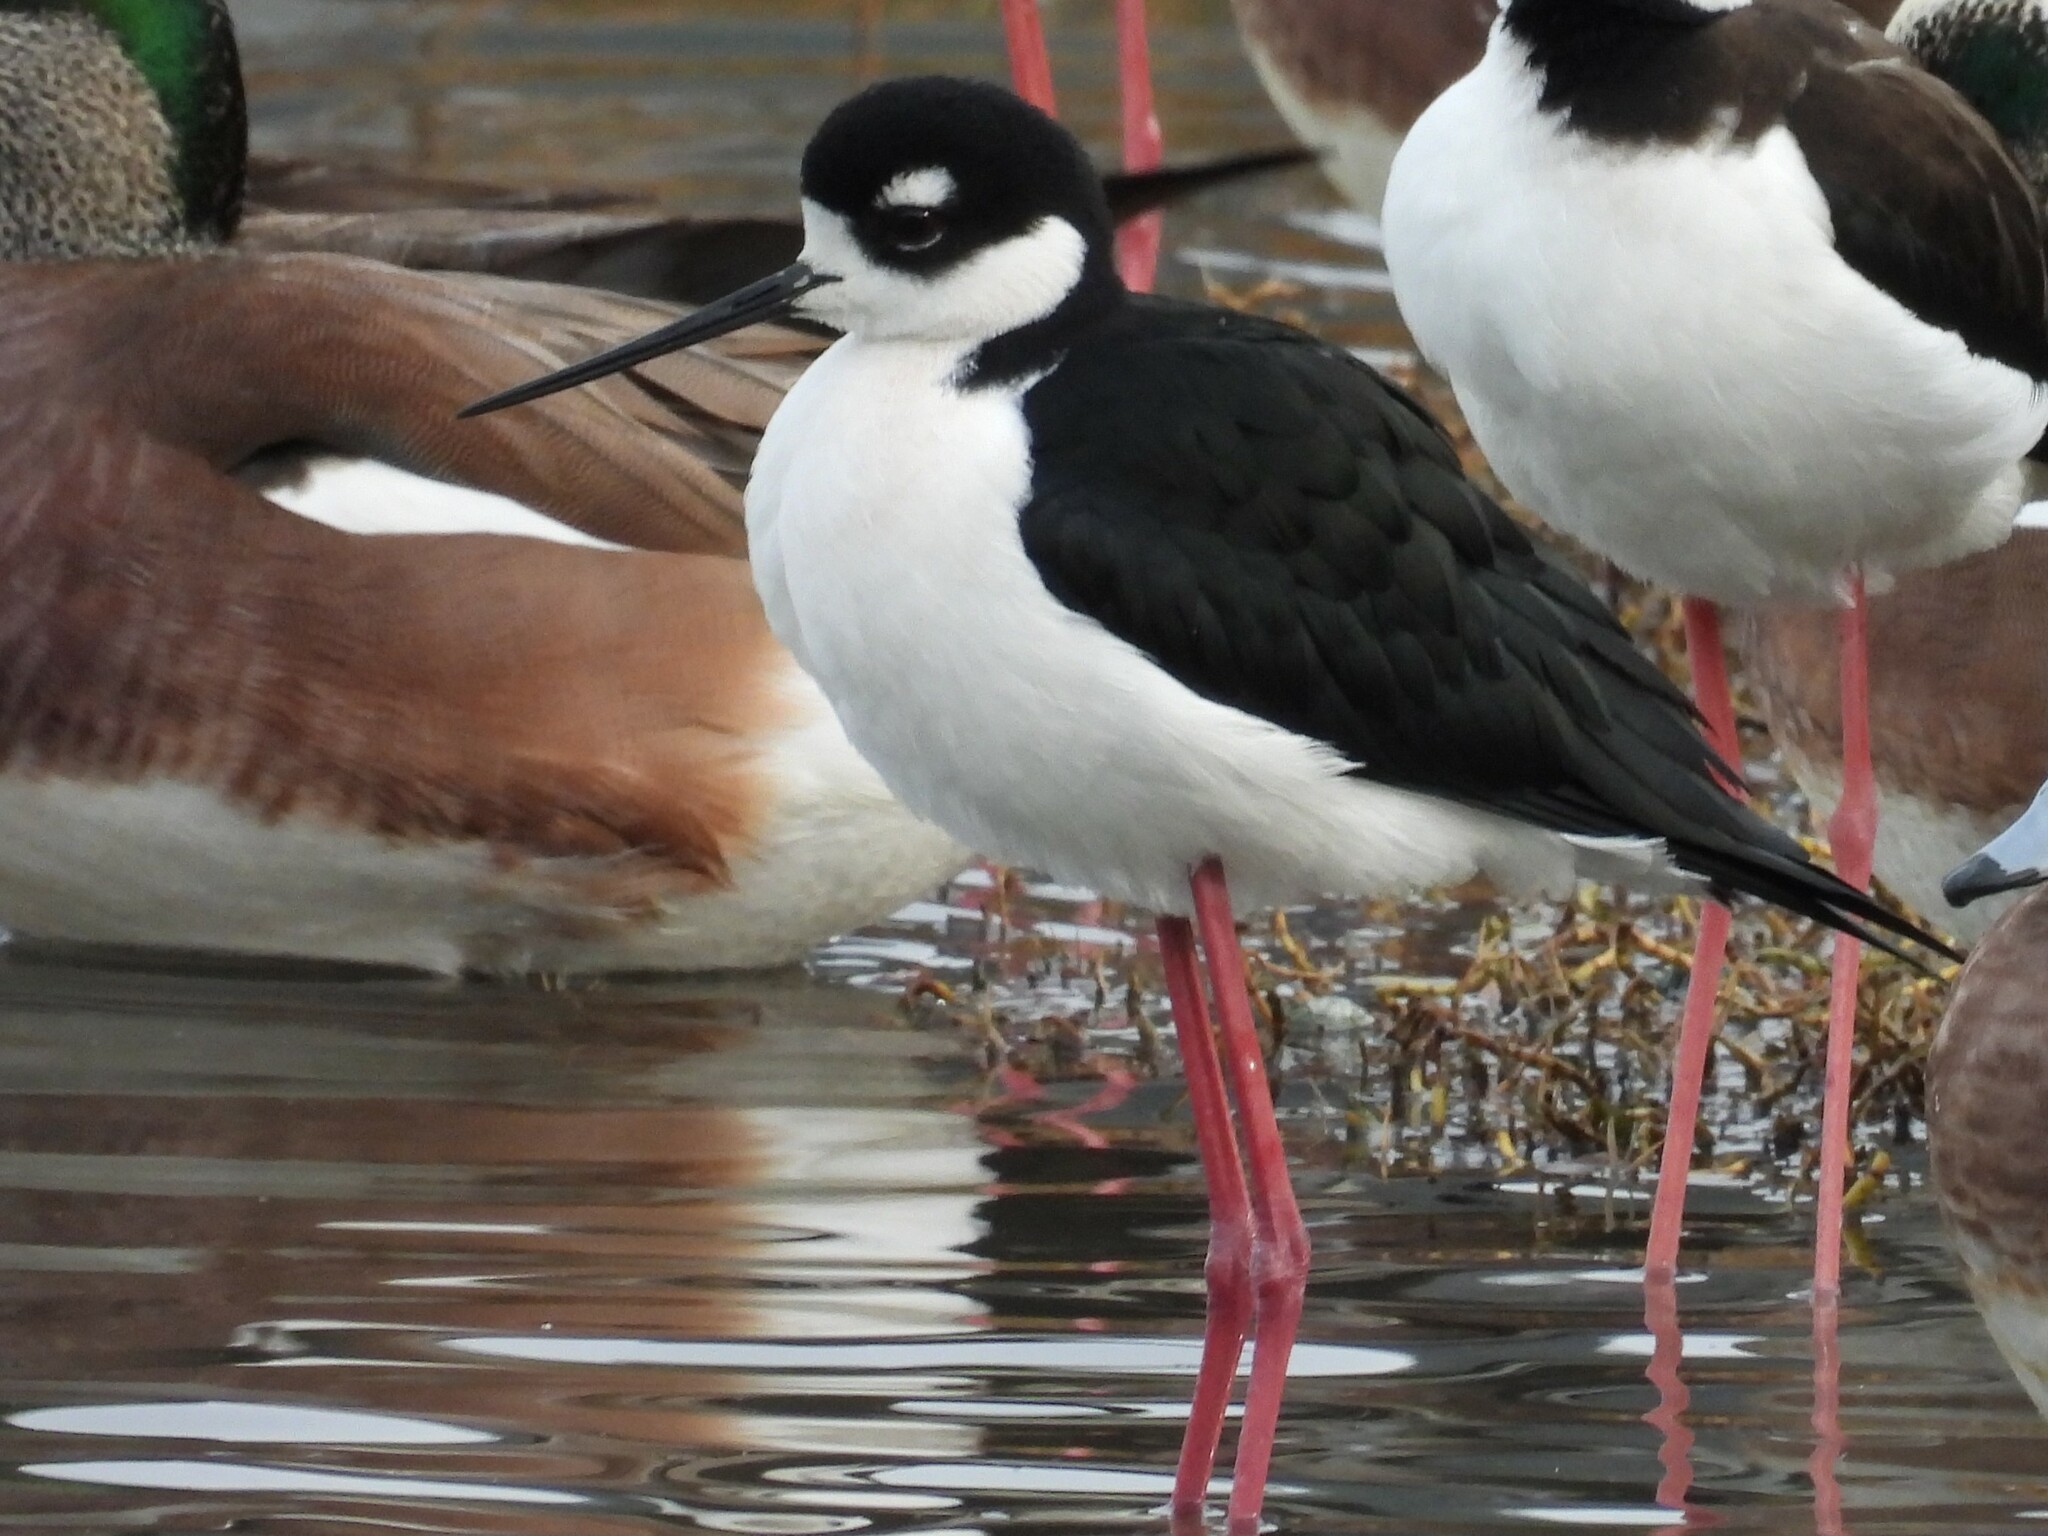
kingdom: Animalia
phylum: Chordata
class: Aves
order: Charadriiformes
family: Recurvirostridae
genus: Himantopus
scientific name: Himantopus mexicanus
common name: Black-necked stilt
